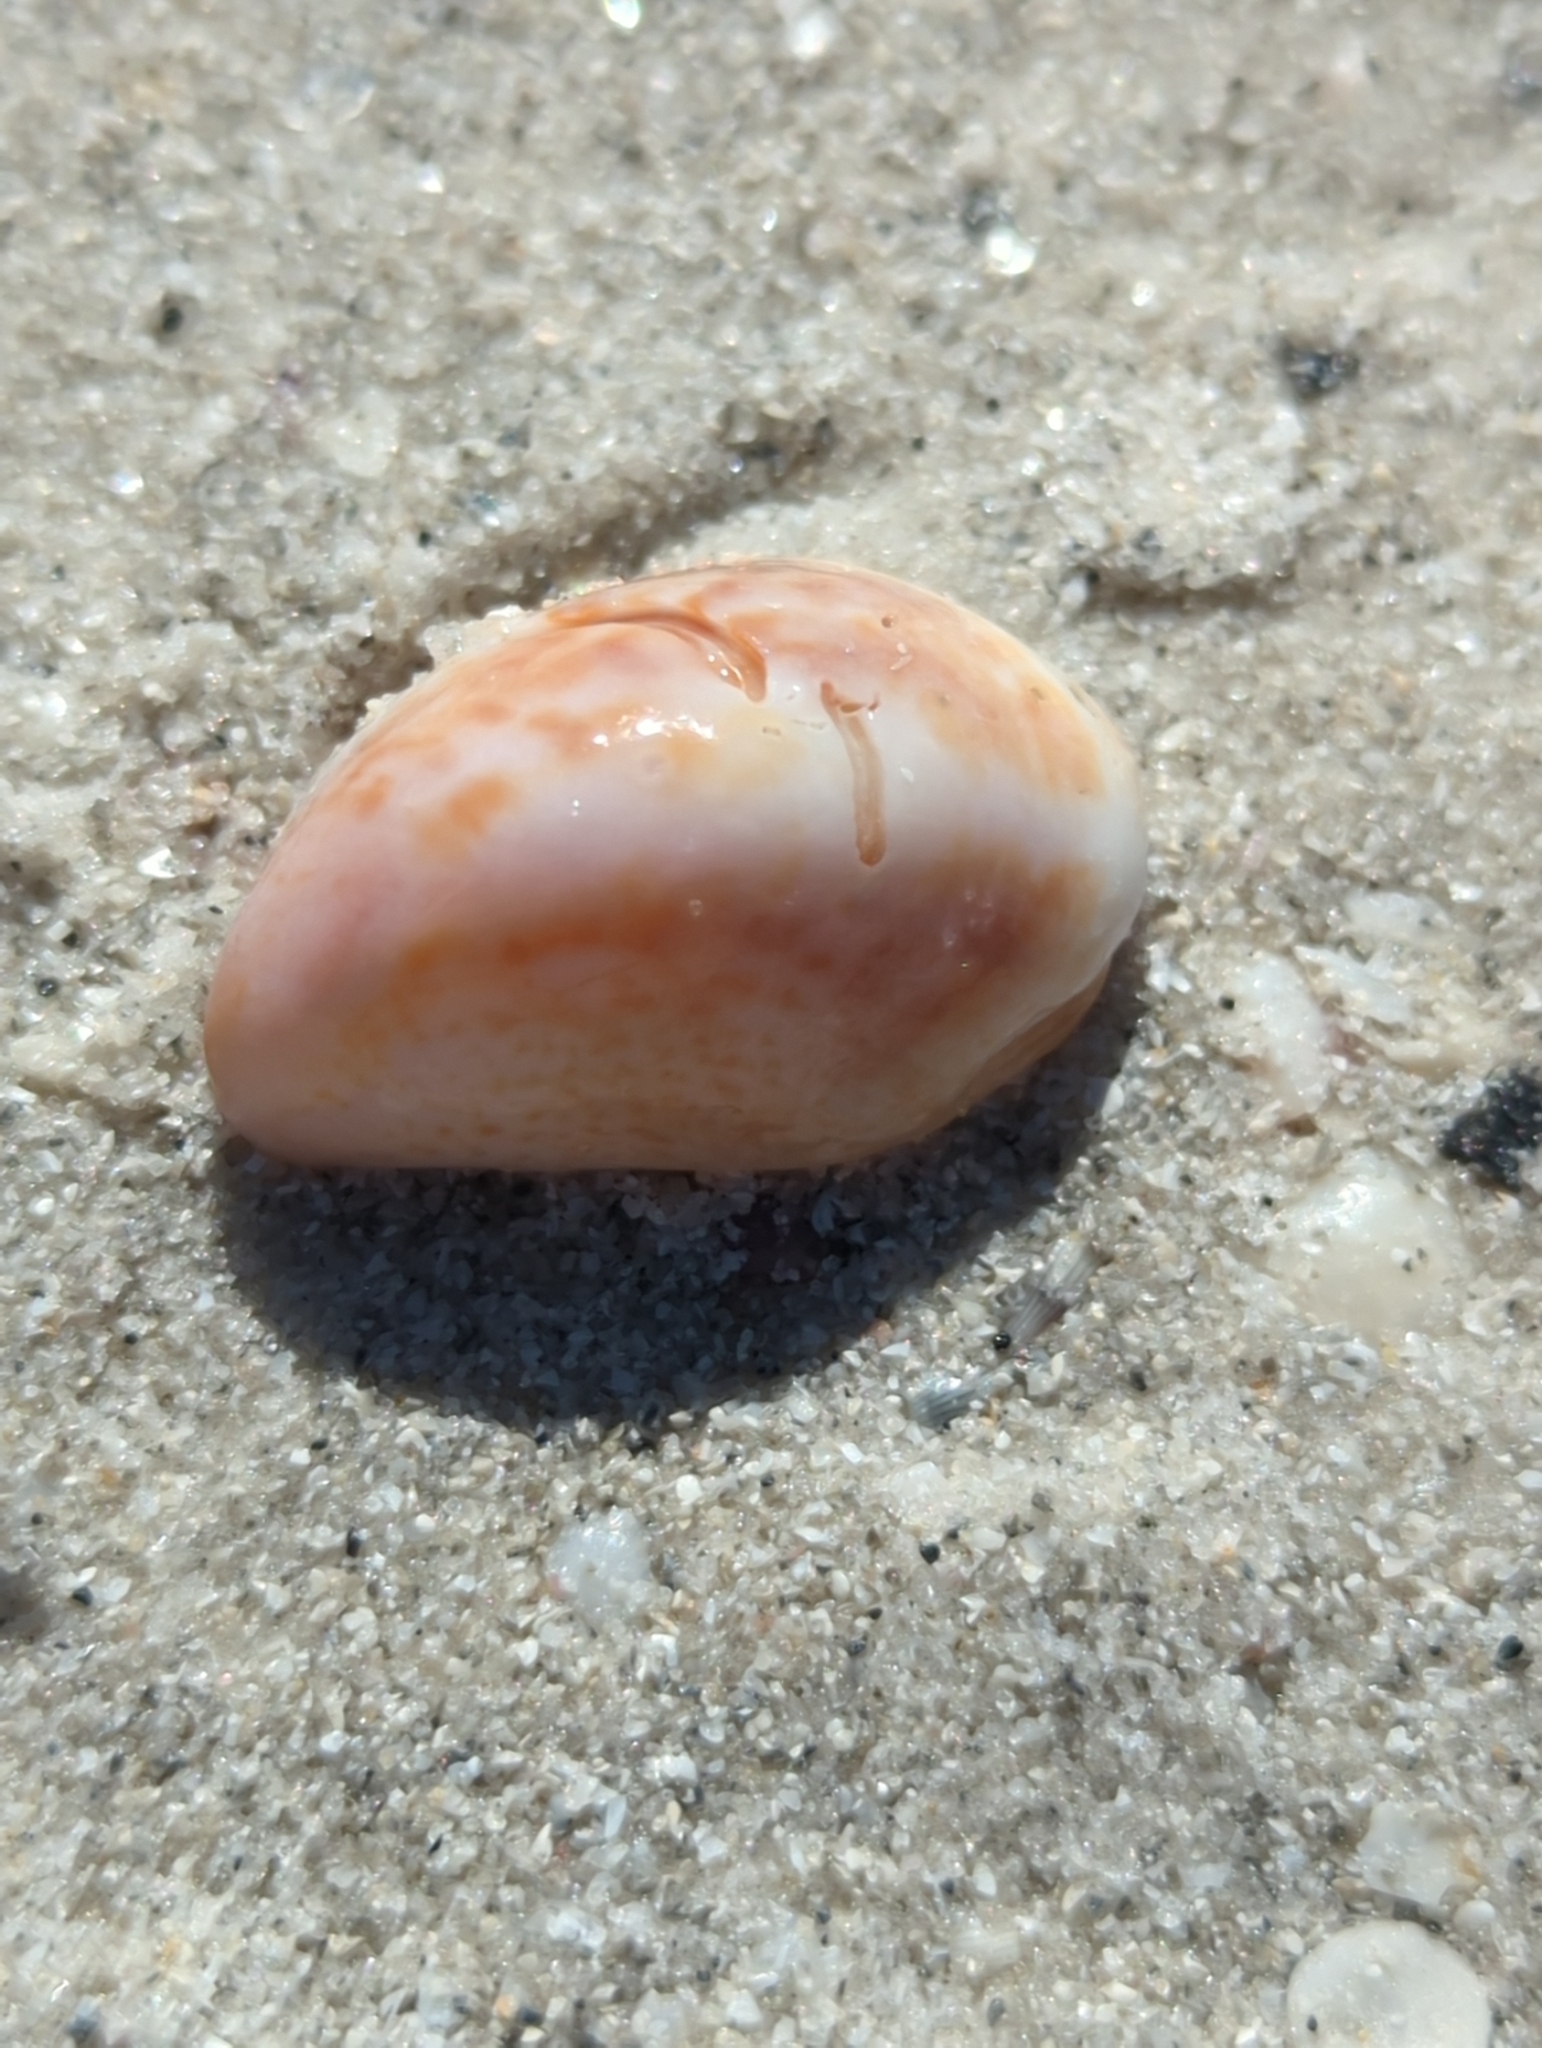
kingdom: Animalia
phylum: Mollusca
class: Gastropoda
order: Littorinimorpha
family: Calyptraeidae
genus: Crepidula
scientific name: Crepidula fornicata
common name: Slipper limpet
